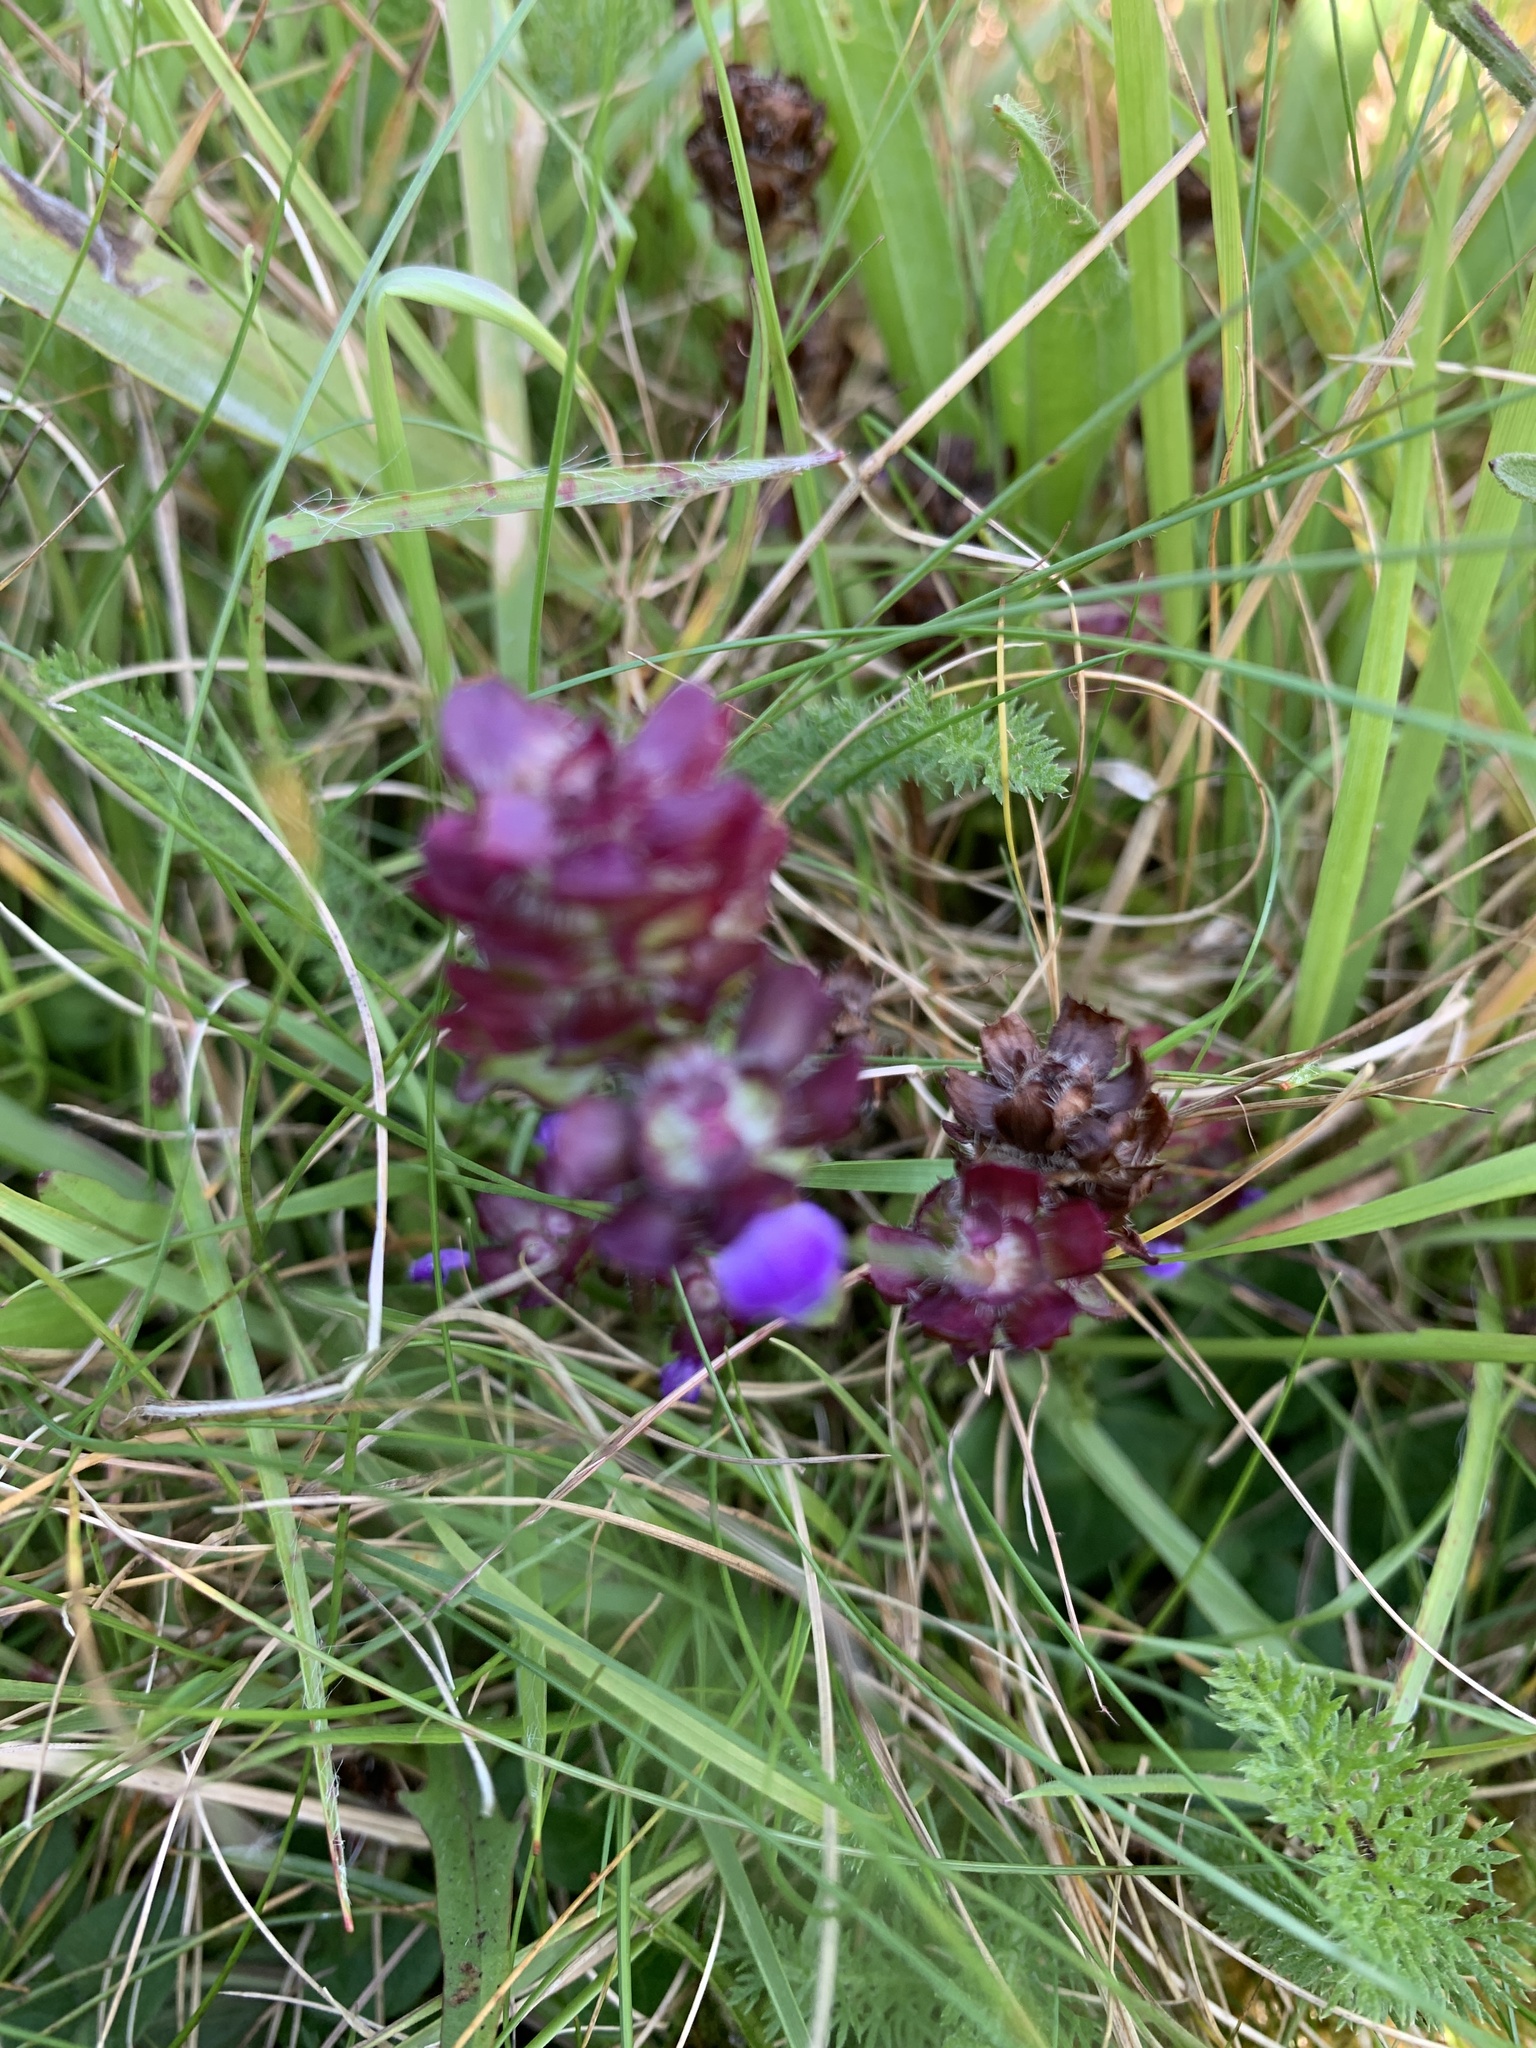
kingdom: Plantae
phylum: Tracheophyta
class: Magnoliopsida
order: Lamiales
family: Lamiaceae
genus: Prunella
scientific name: Prunella vulgaris
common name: Heal-all
